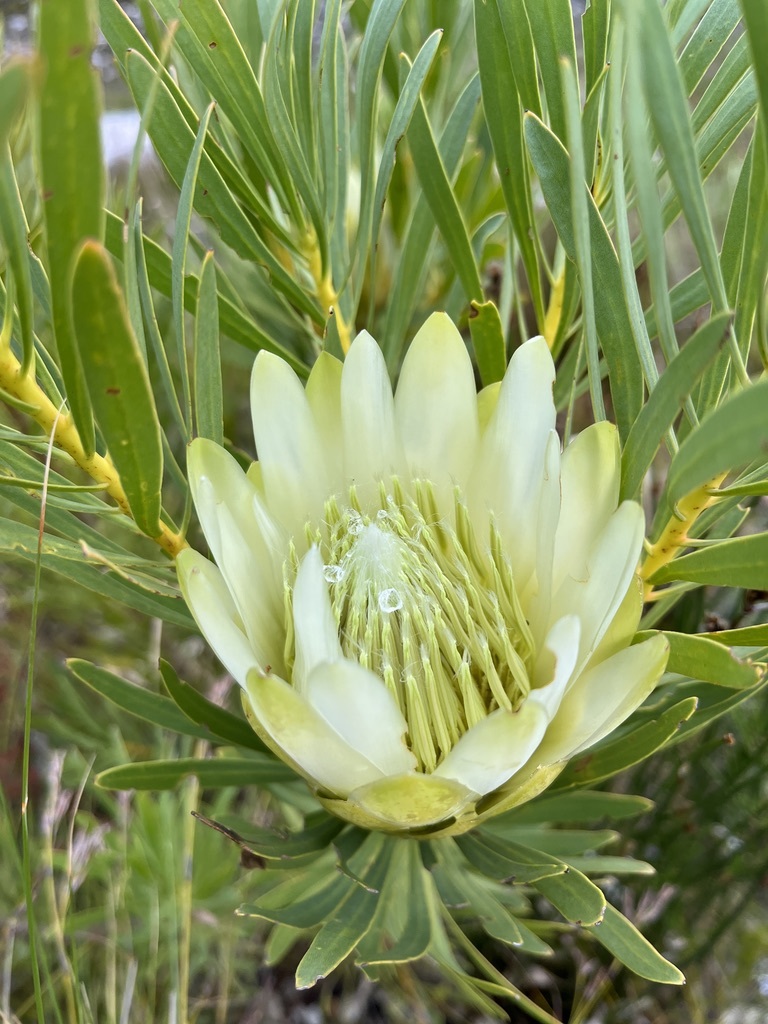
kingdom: Plantae
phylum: Tracheophyta
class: Magnoliopsida
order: Proteales
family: Proteaceae
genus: Protea
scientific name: Protea repens
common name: Sugarbush
